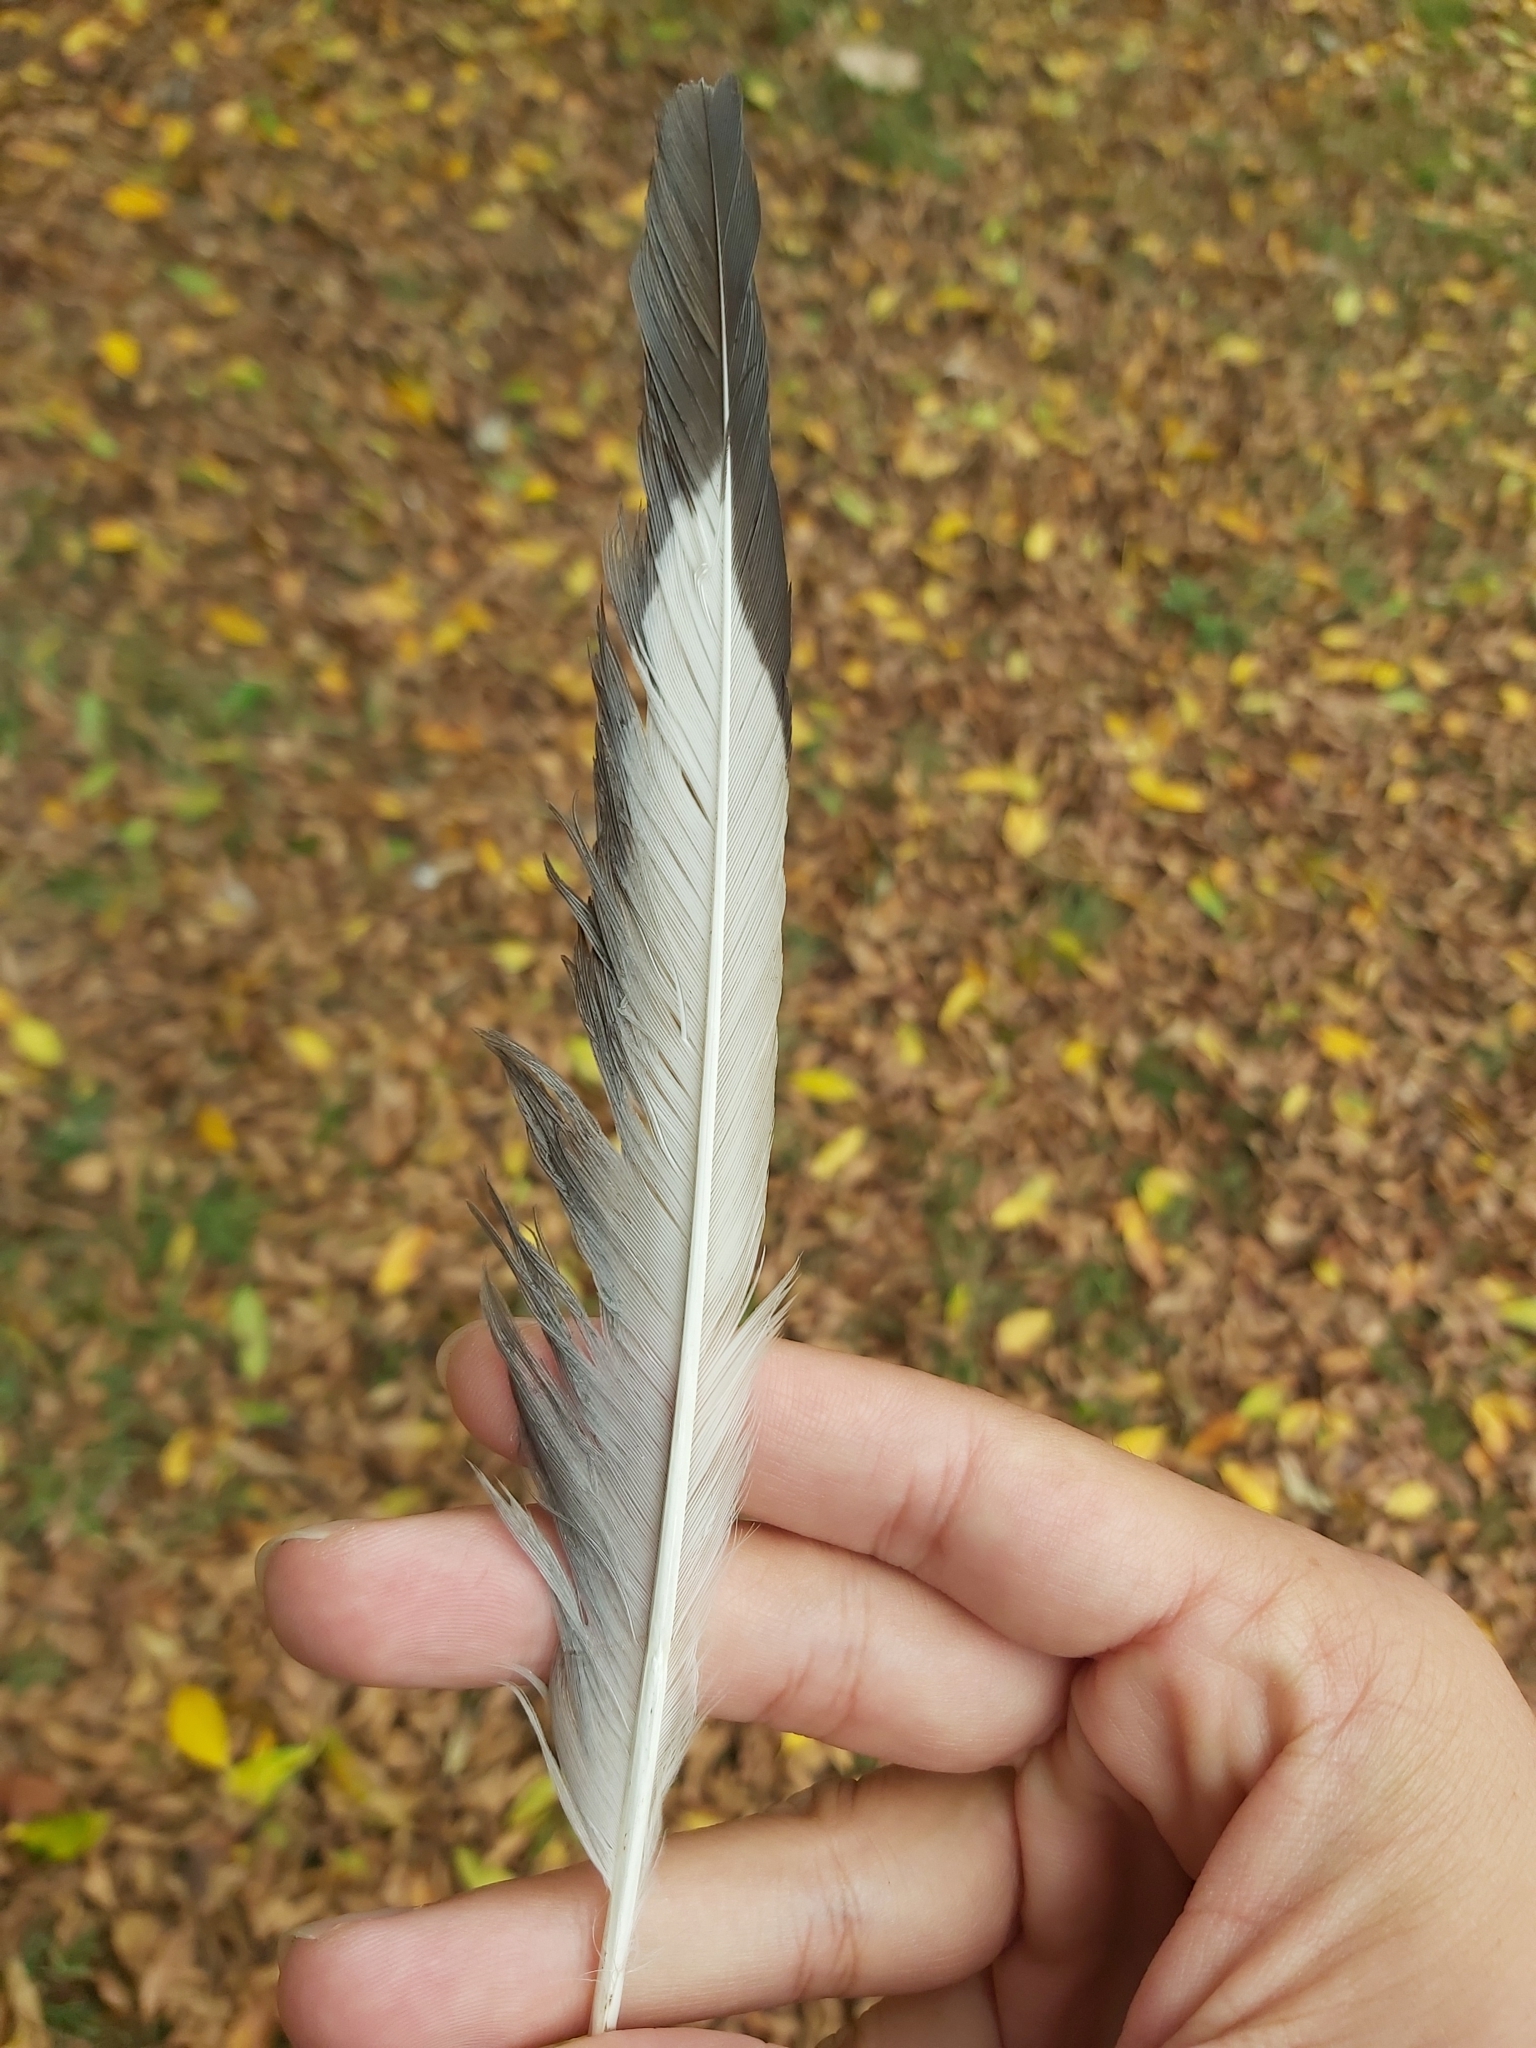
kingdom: Animalia
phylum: Chordata
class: Aves
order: Charadriiformes
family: Laridae
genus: Chroicocephalus
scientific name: Chroicocephalus novaehollandiae
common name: Silver gull
